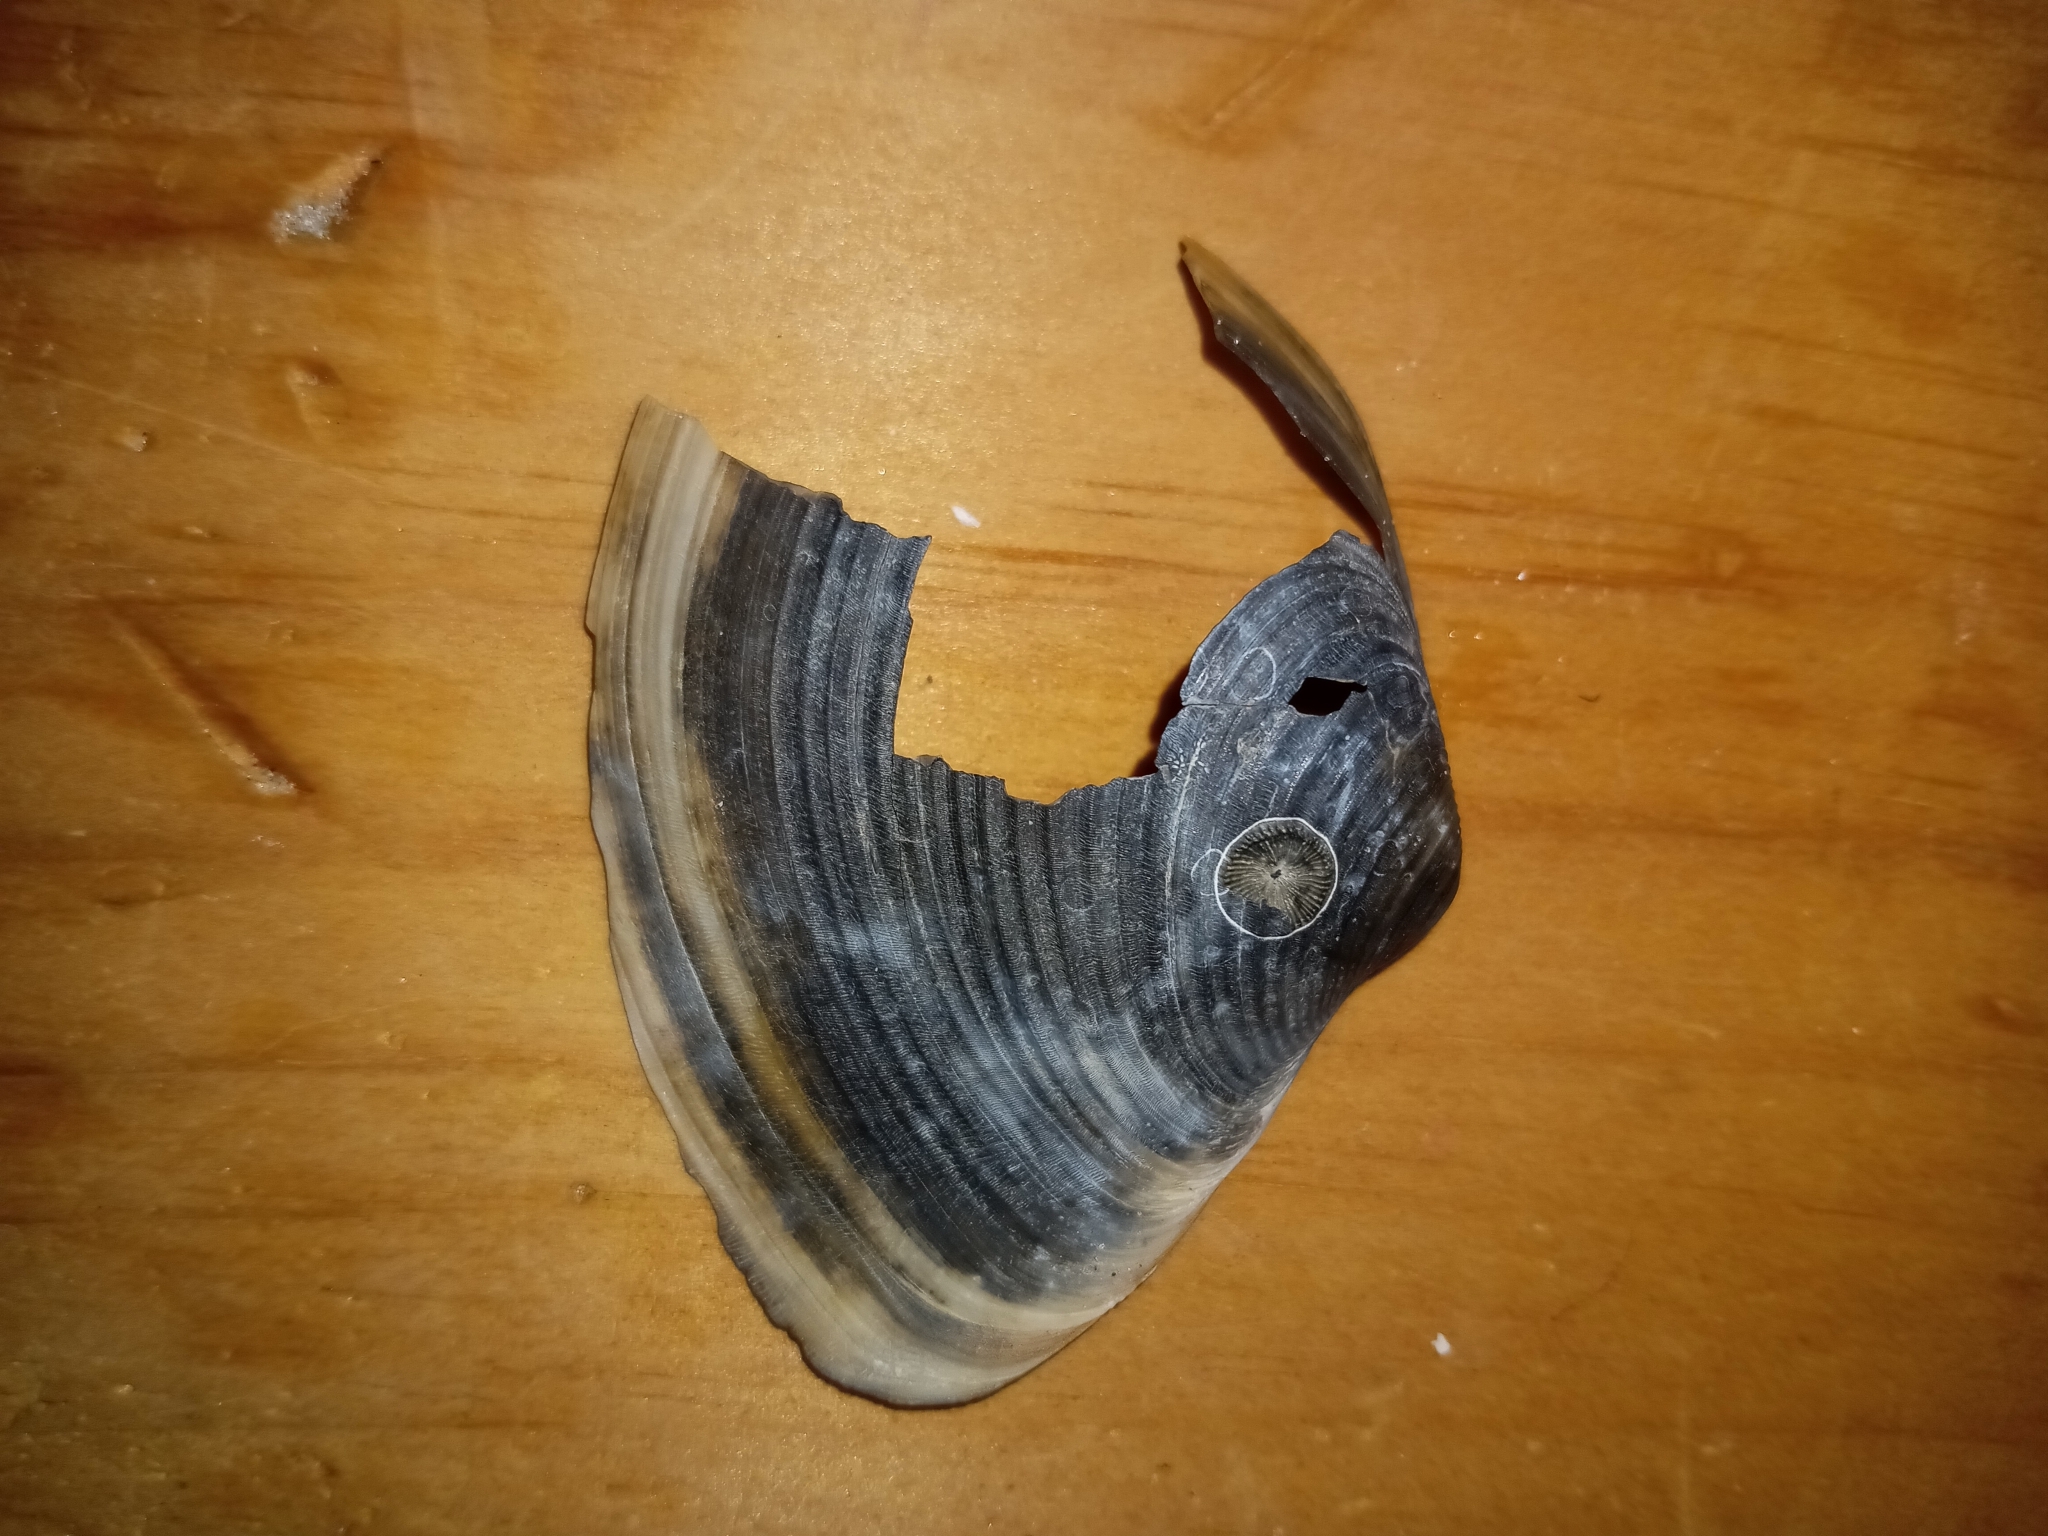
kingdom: Animalia
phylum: Mollusca
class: Bivalvia
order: Venerida
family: Anatinellidae
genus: Raeta
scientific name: Raeta plicatella
